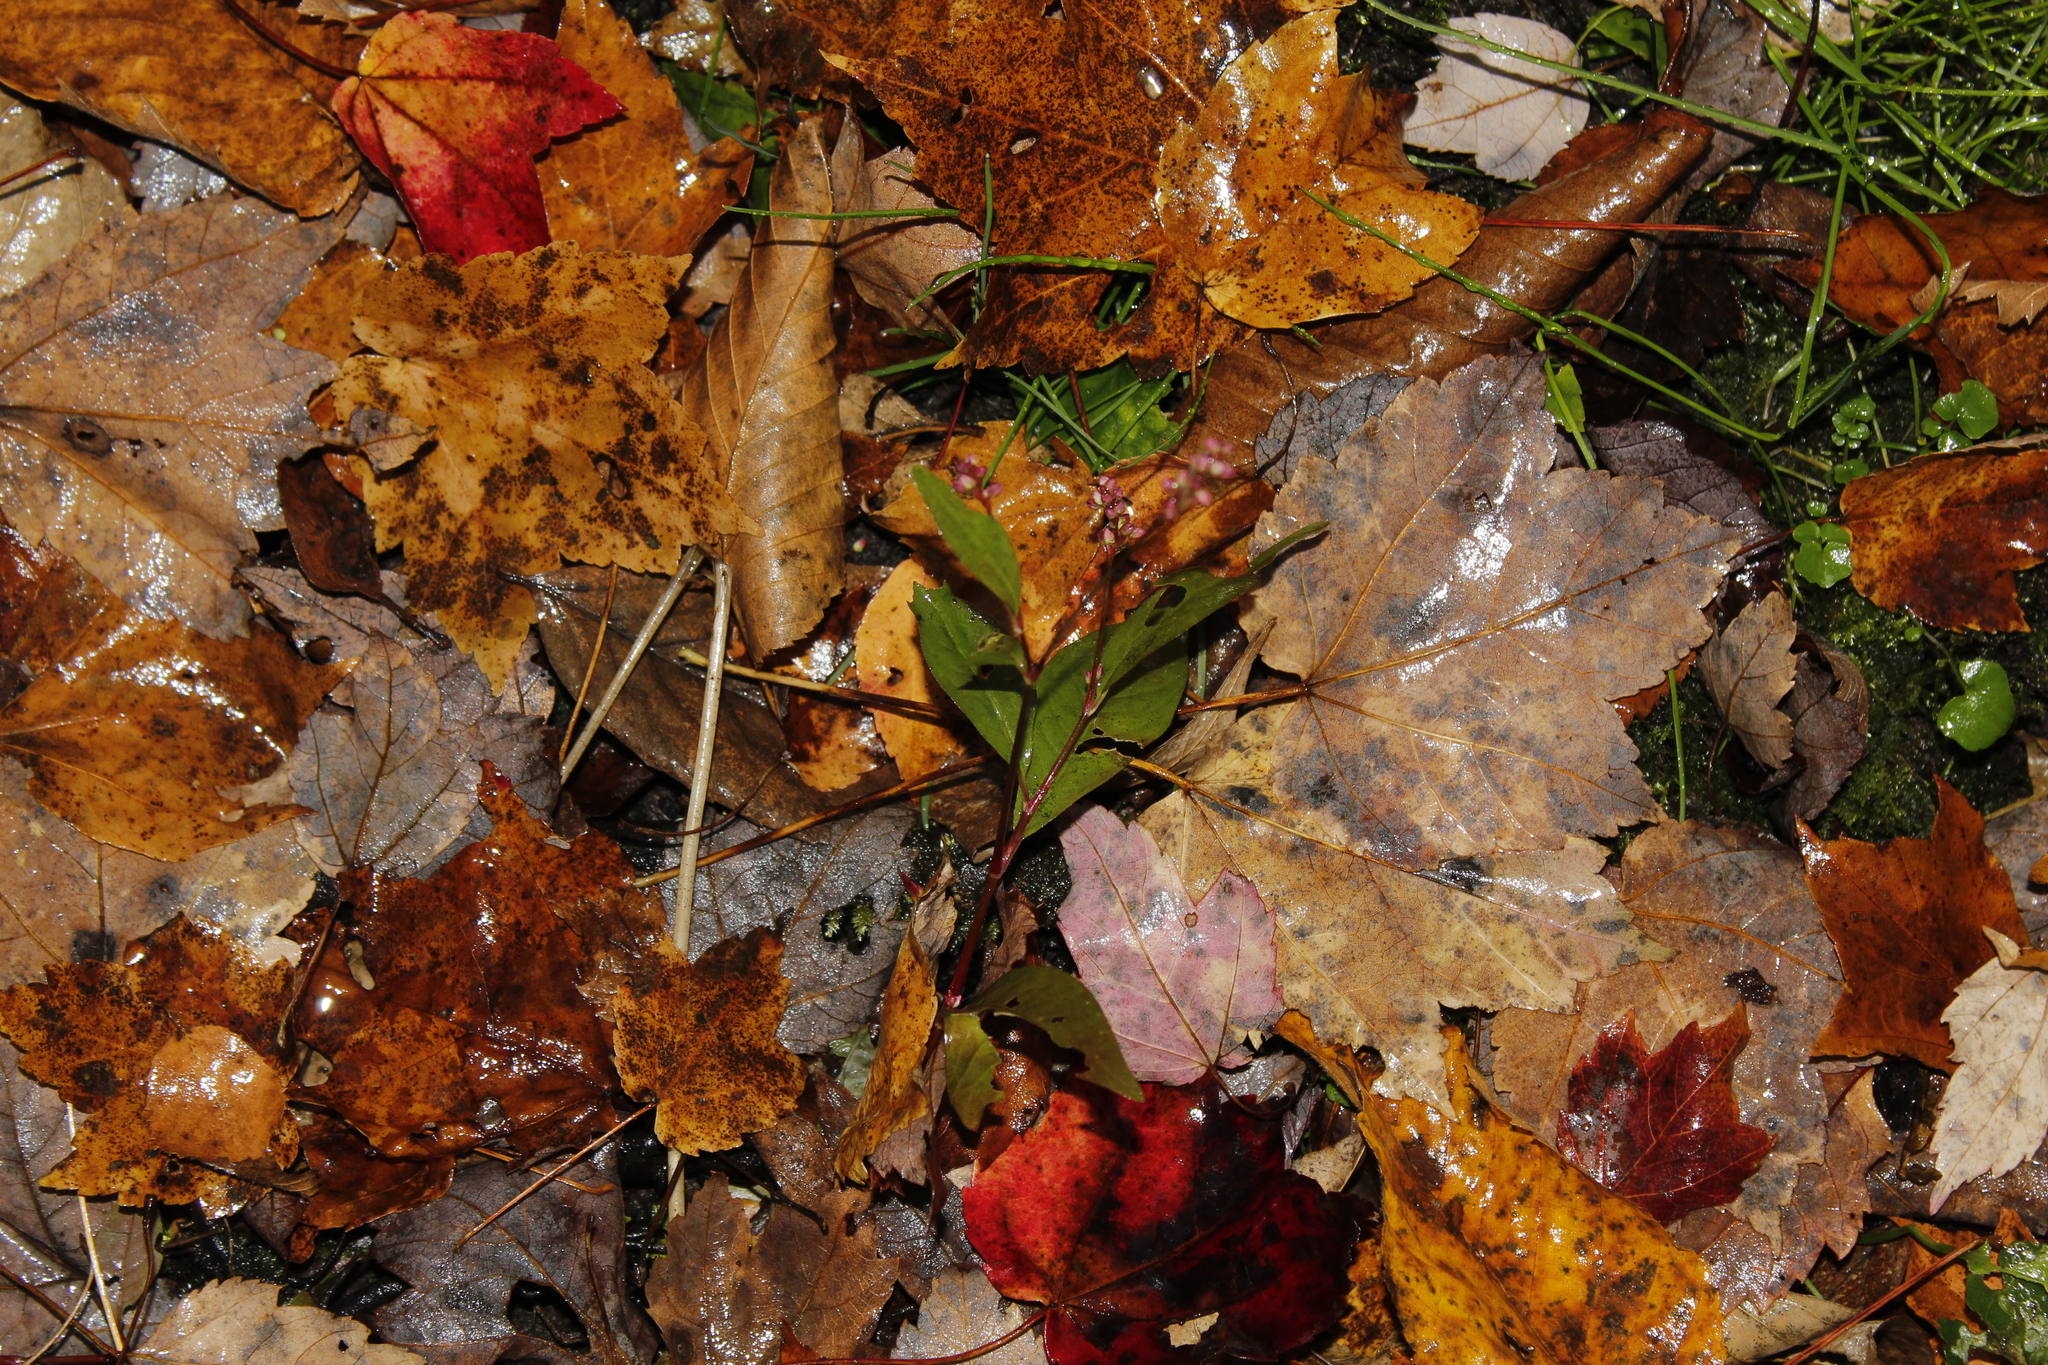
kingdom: Plantae
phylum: Tracheophyta
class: Magnoliopsida
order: Caryophyllales
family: Polygonaceae
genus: Persicaria
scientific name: Persicaria longiseta
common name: Bristly lady's-thumb
